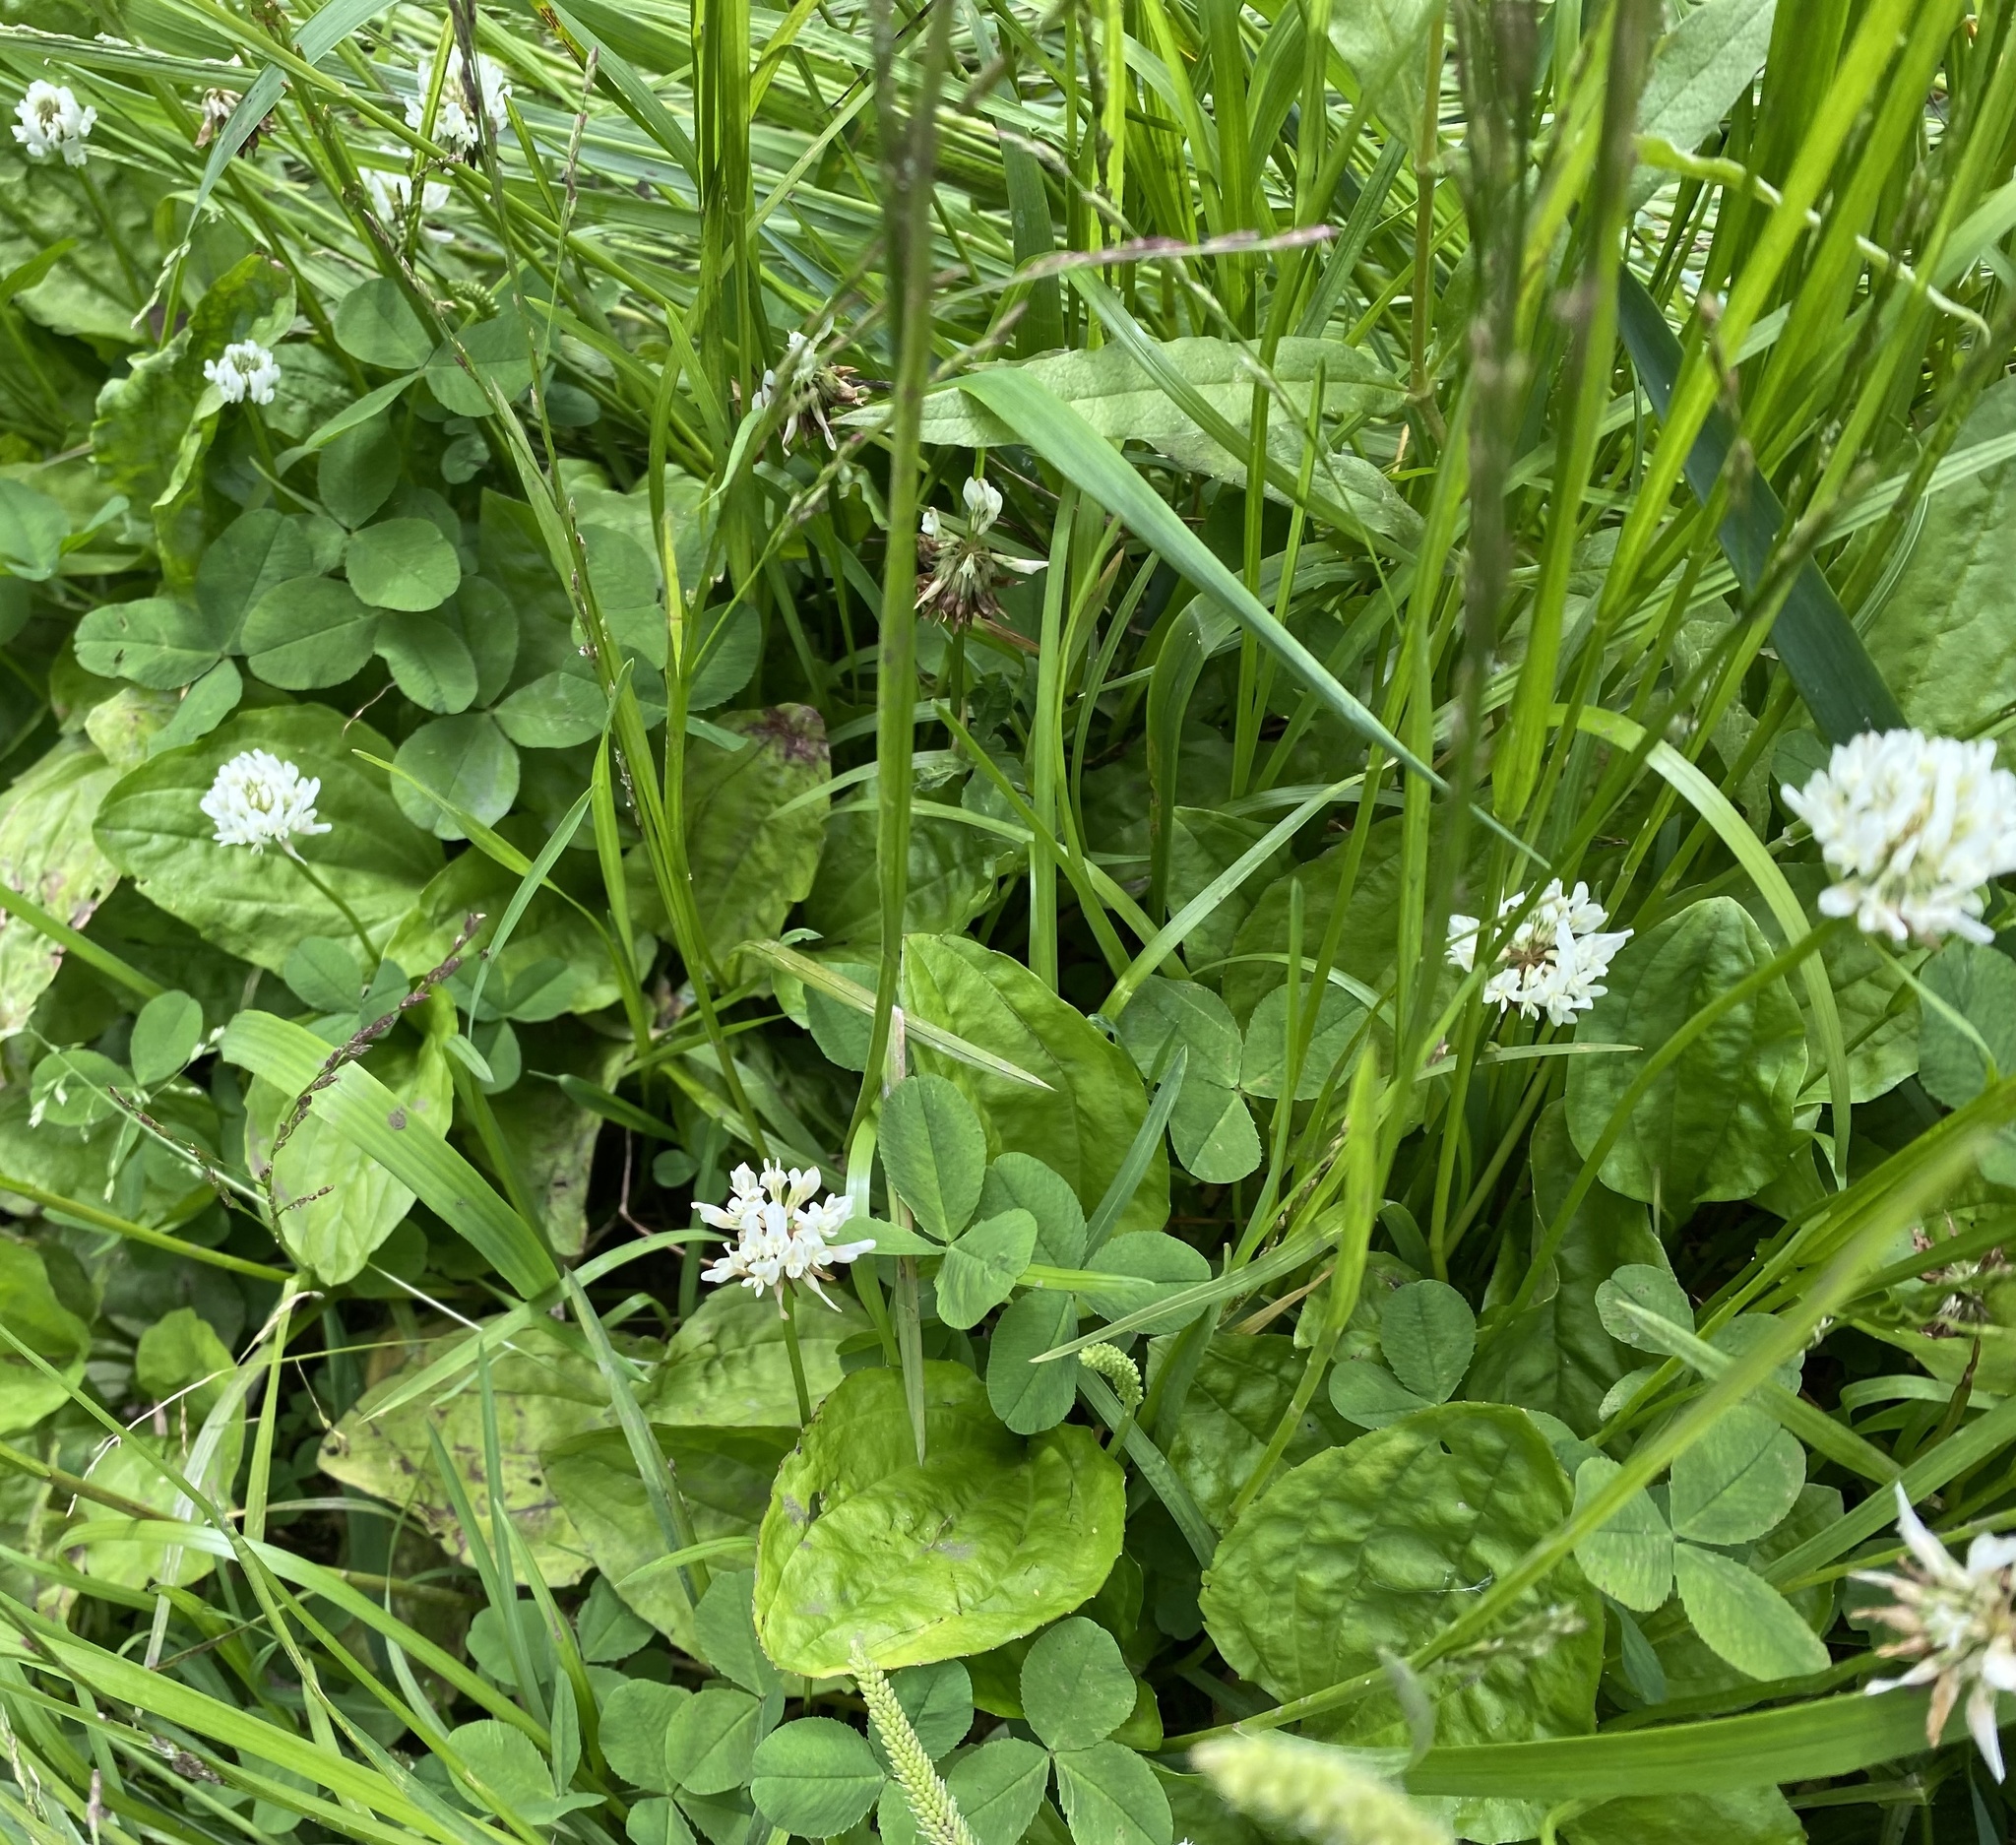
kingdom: Plantae
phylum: Tracheophyta
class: Magnoliopsida
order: Fabales
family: Fabaceae
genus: Trifolium
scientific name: Trifolium repens
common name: White clover
